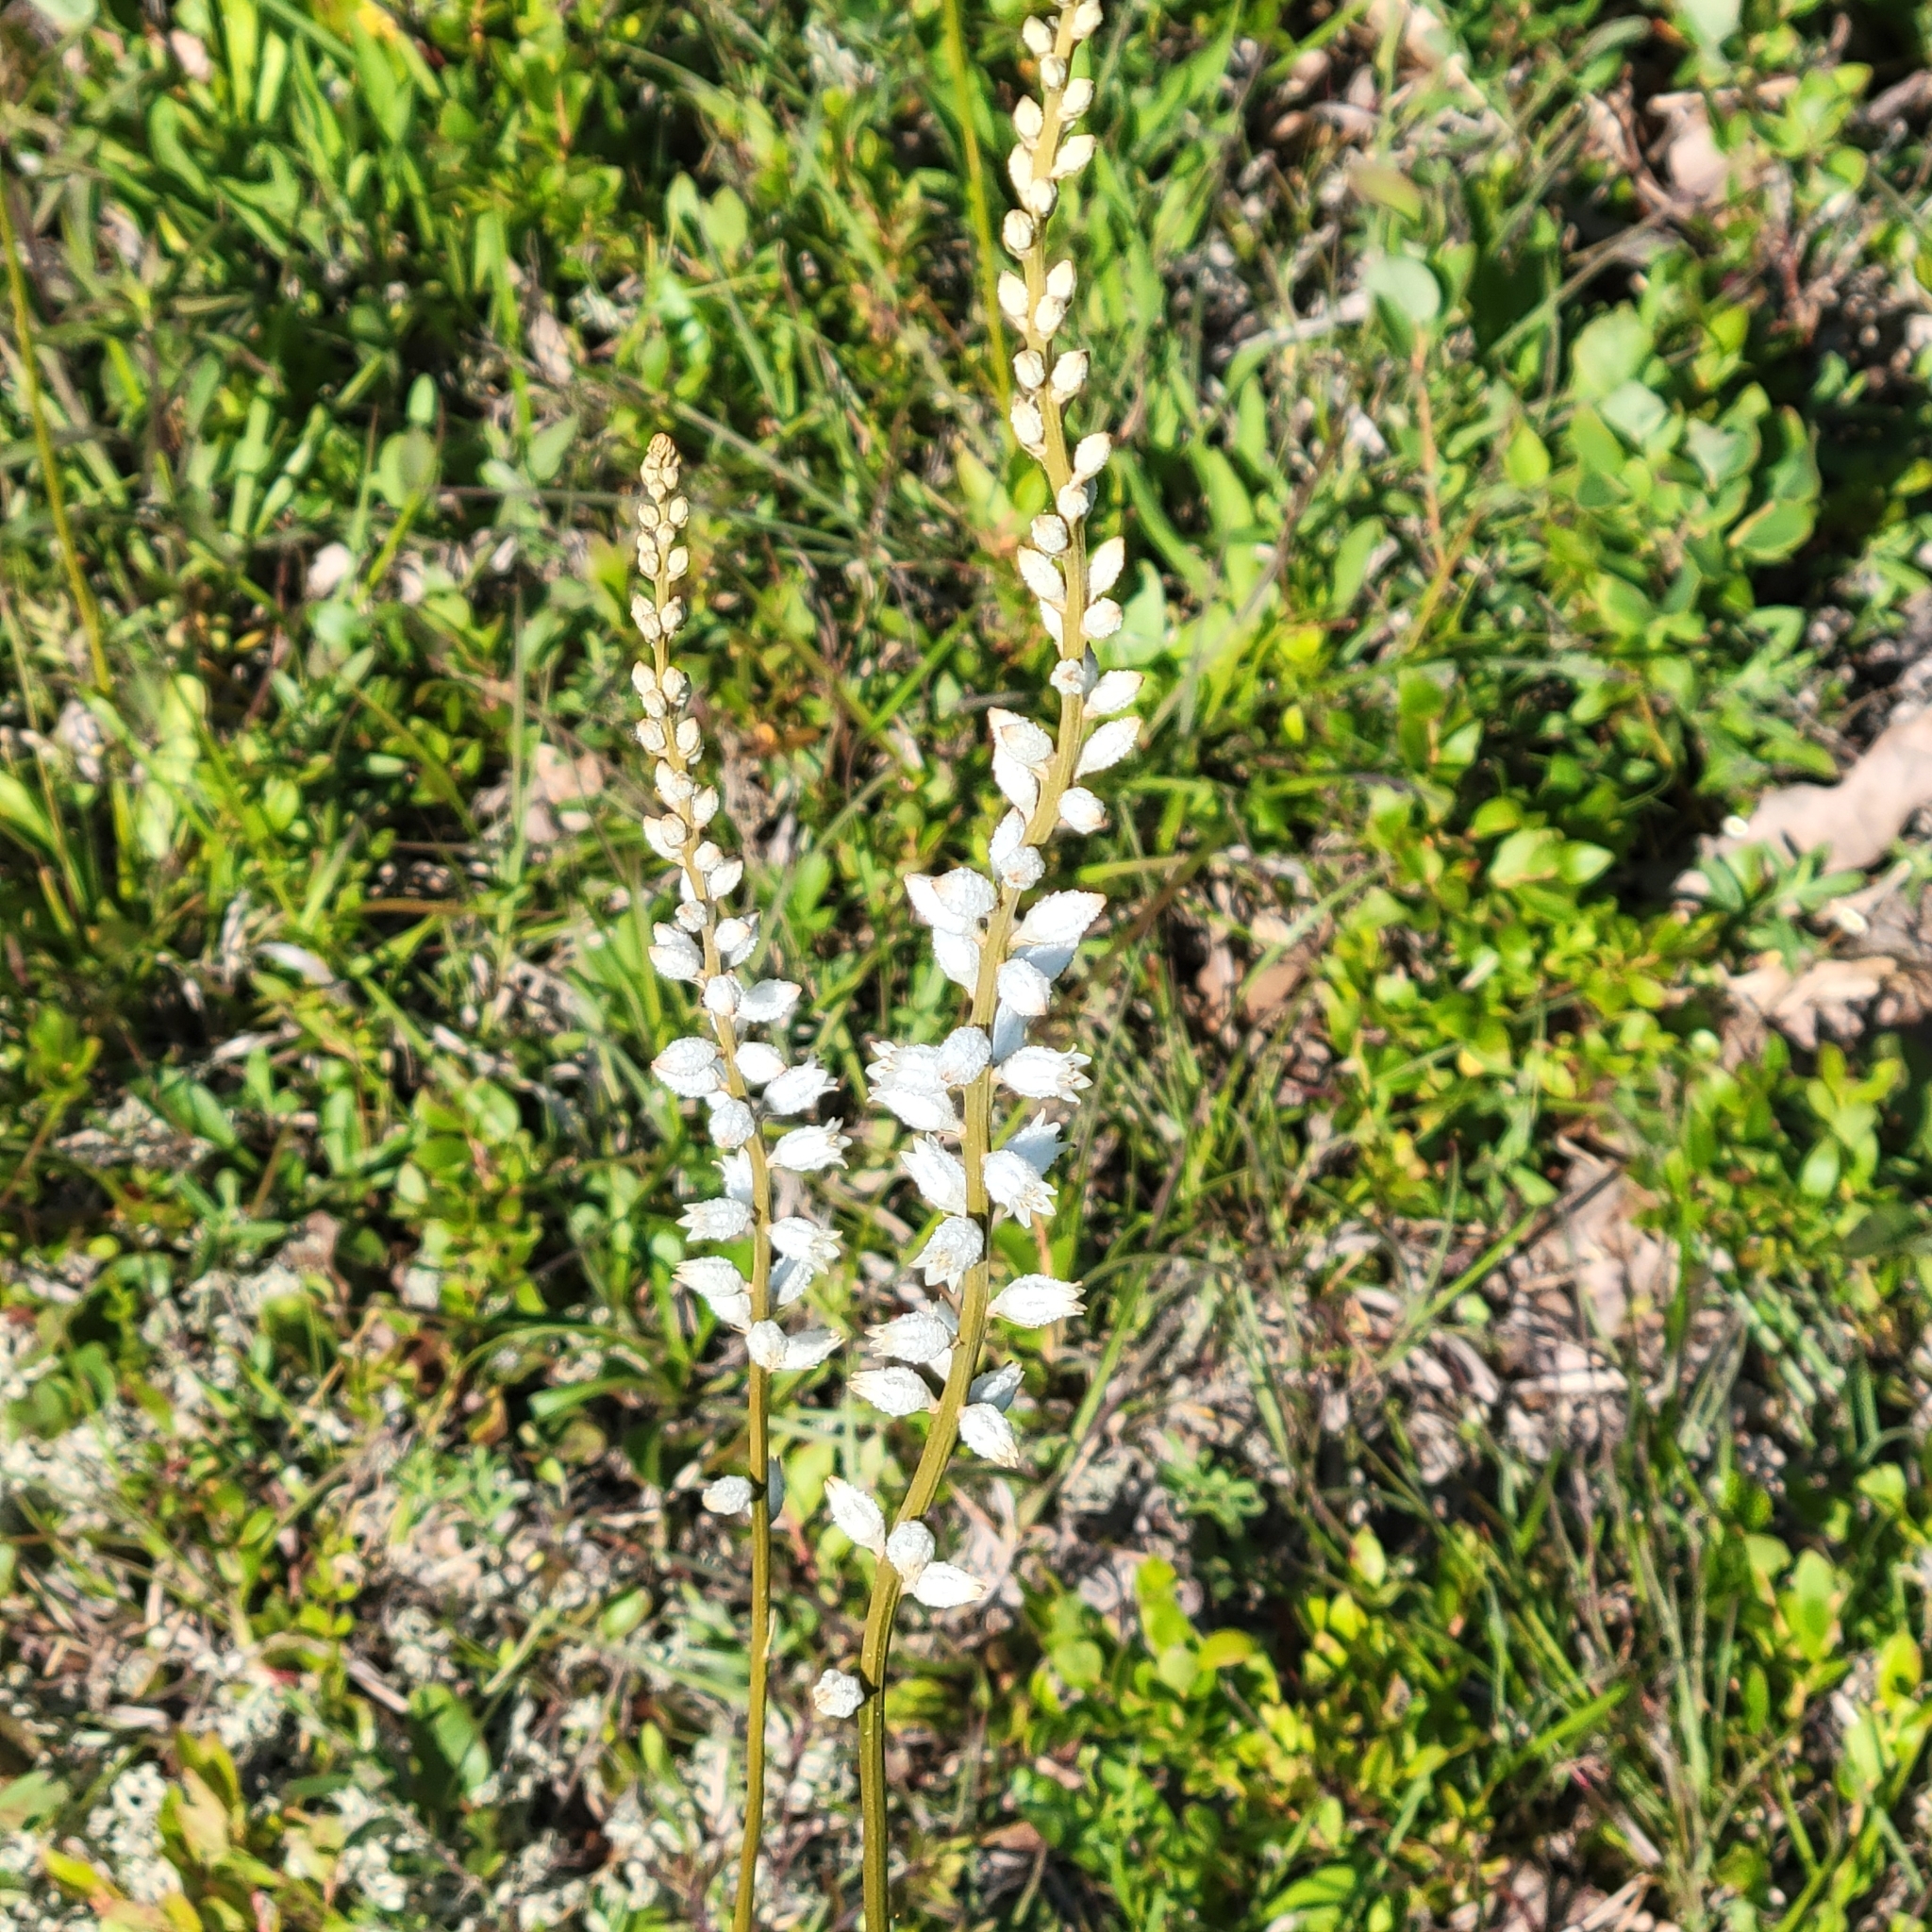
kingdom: Plantae
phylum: Tracheophyta
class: Liliopsida
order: Dioscoreales
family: Nartheciaceae
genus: Aletris
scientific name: Aletris farinosa
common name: Colicroot
